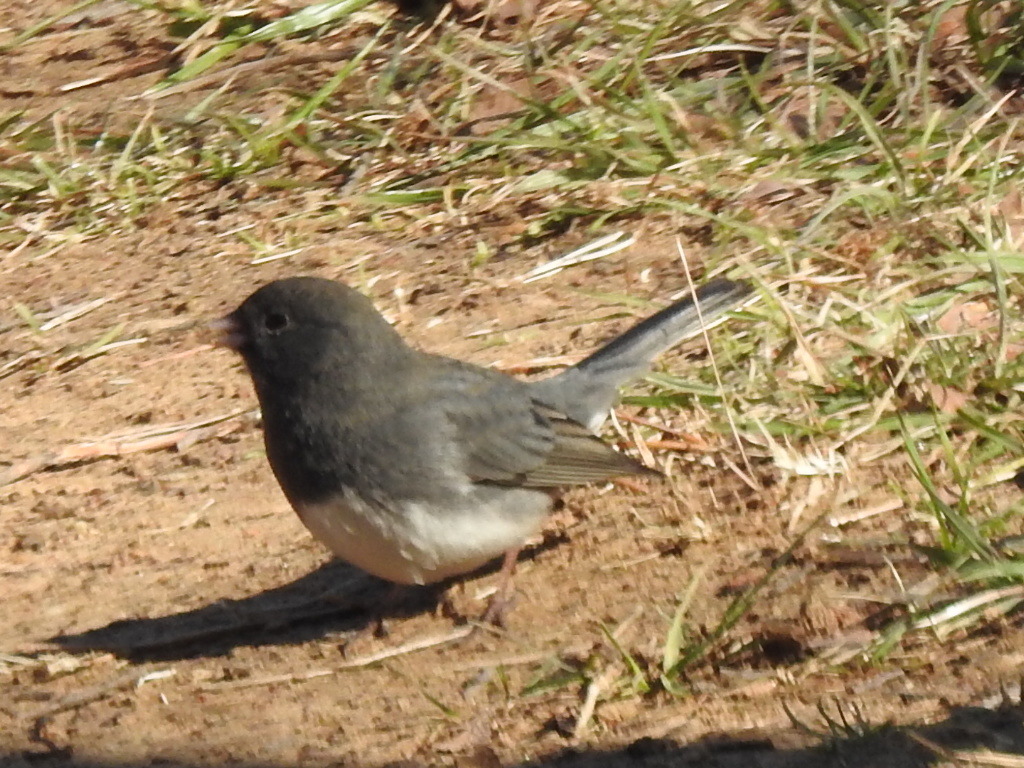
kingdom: Animalia
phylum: Chordata
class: Aves
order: Passeriformes
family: Passerellidae
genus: Junco
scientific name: Junco hyemalis
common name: Dark-eyed junco
